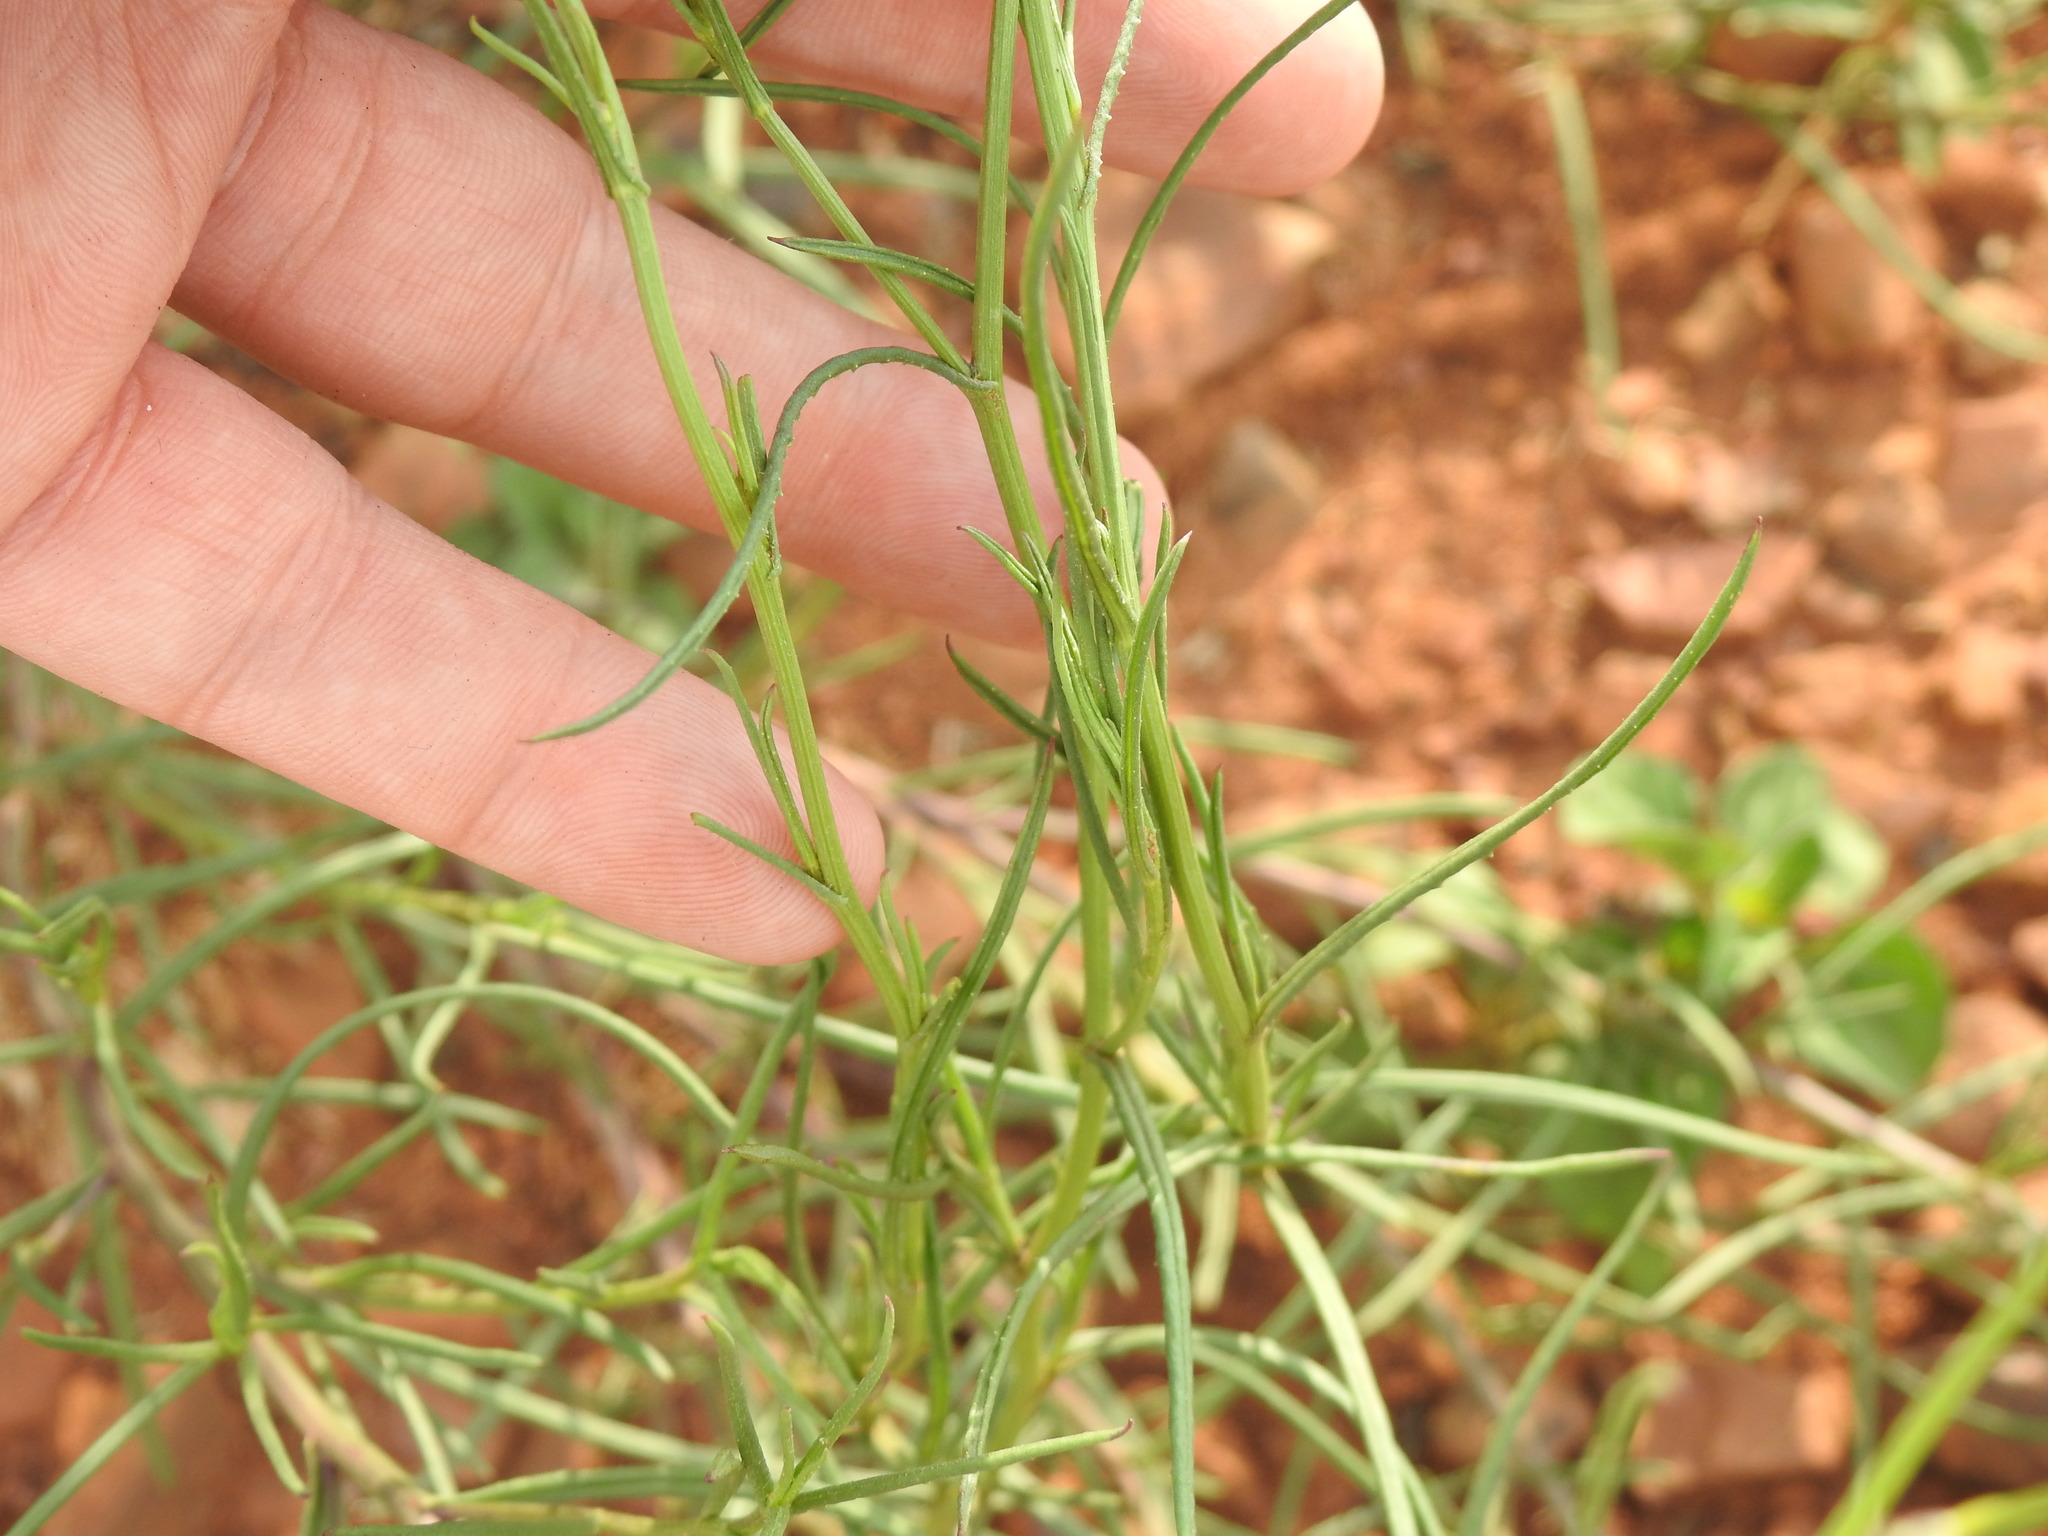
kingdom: Plantae
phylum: Tracheophyta
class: Magnoliopsida
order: Asterales
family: Asteraceae
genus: Senecio
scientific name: Senecio inaequidens
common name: Narrow-leaved ragwort
